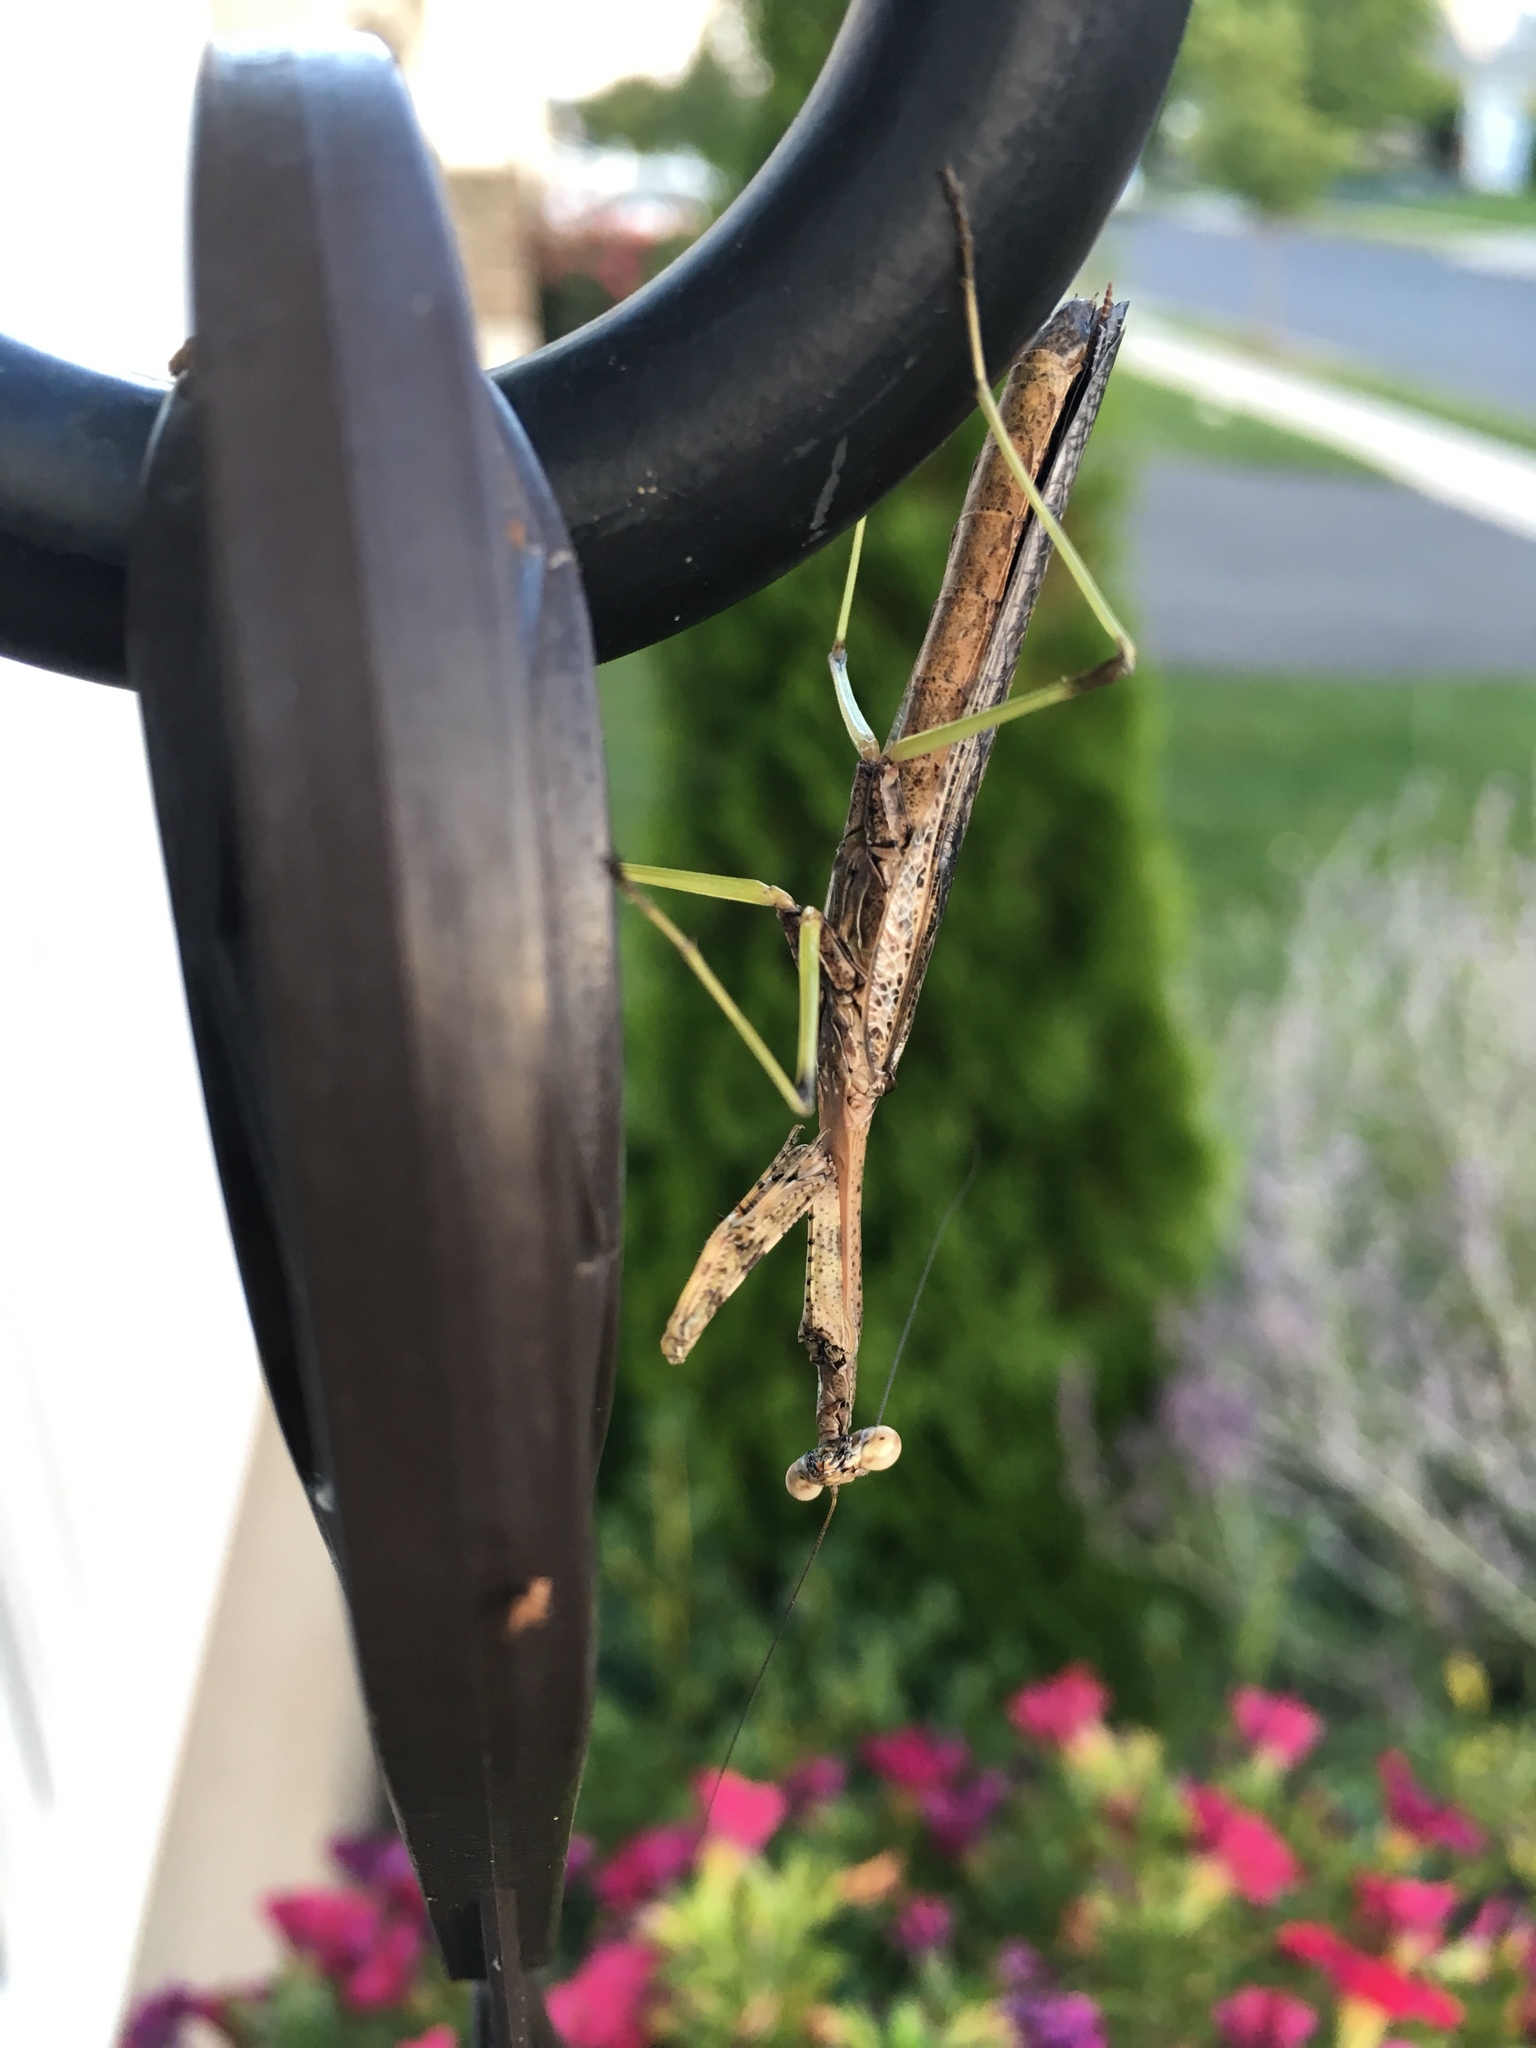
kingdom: Animalia
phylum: Arthropoda
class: Insecta
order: Mantodea
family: Mantidae
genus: Stagmomantis
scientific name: Stagmomantis carolina
